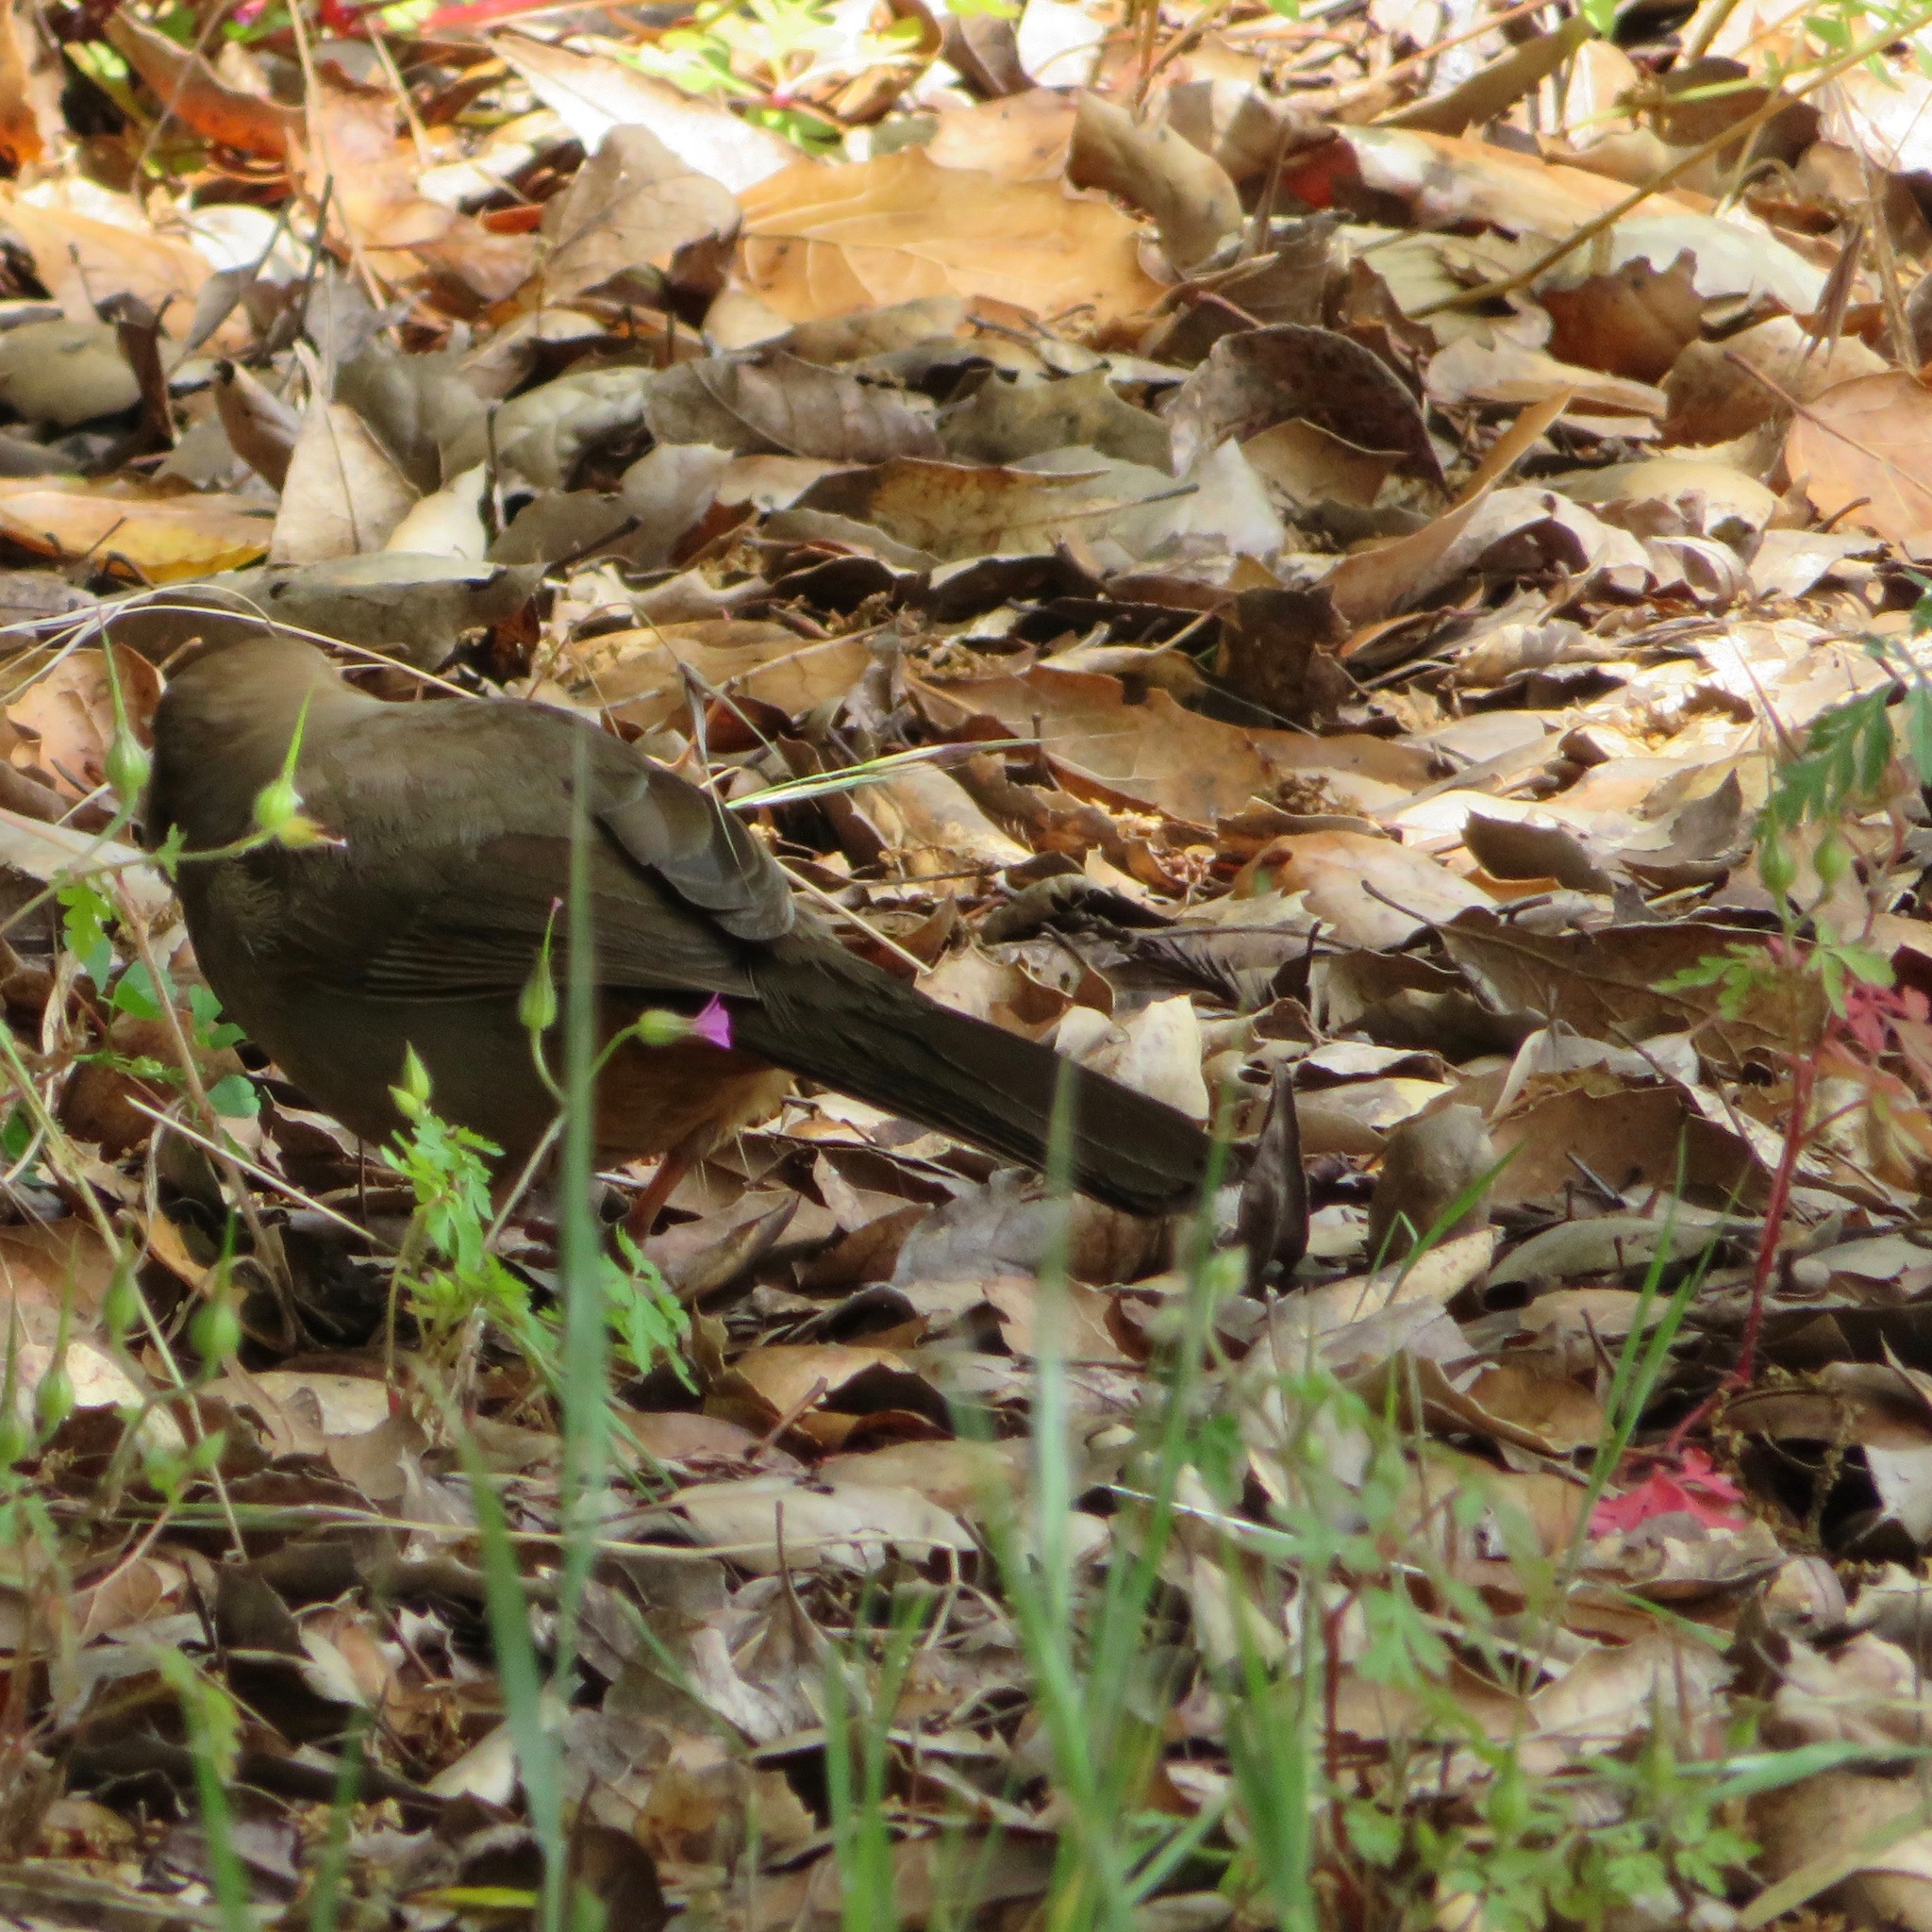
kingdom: Animalia
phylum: Chordata
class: Aves
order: Passeriformes
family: Passerellidae
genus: Melozone
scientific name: Melozone crissalis
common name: California towhee
